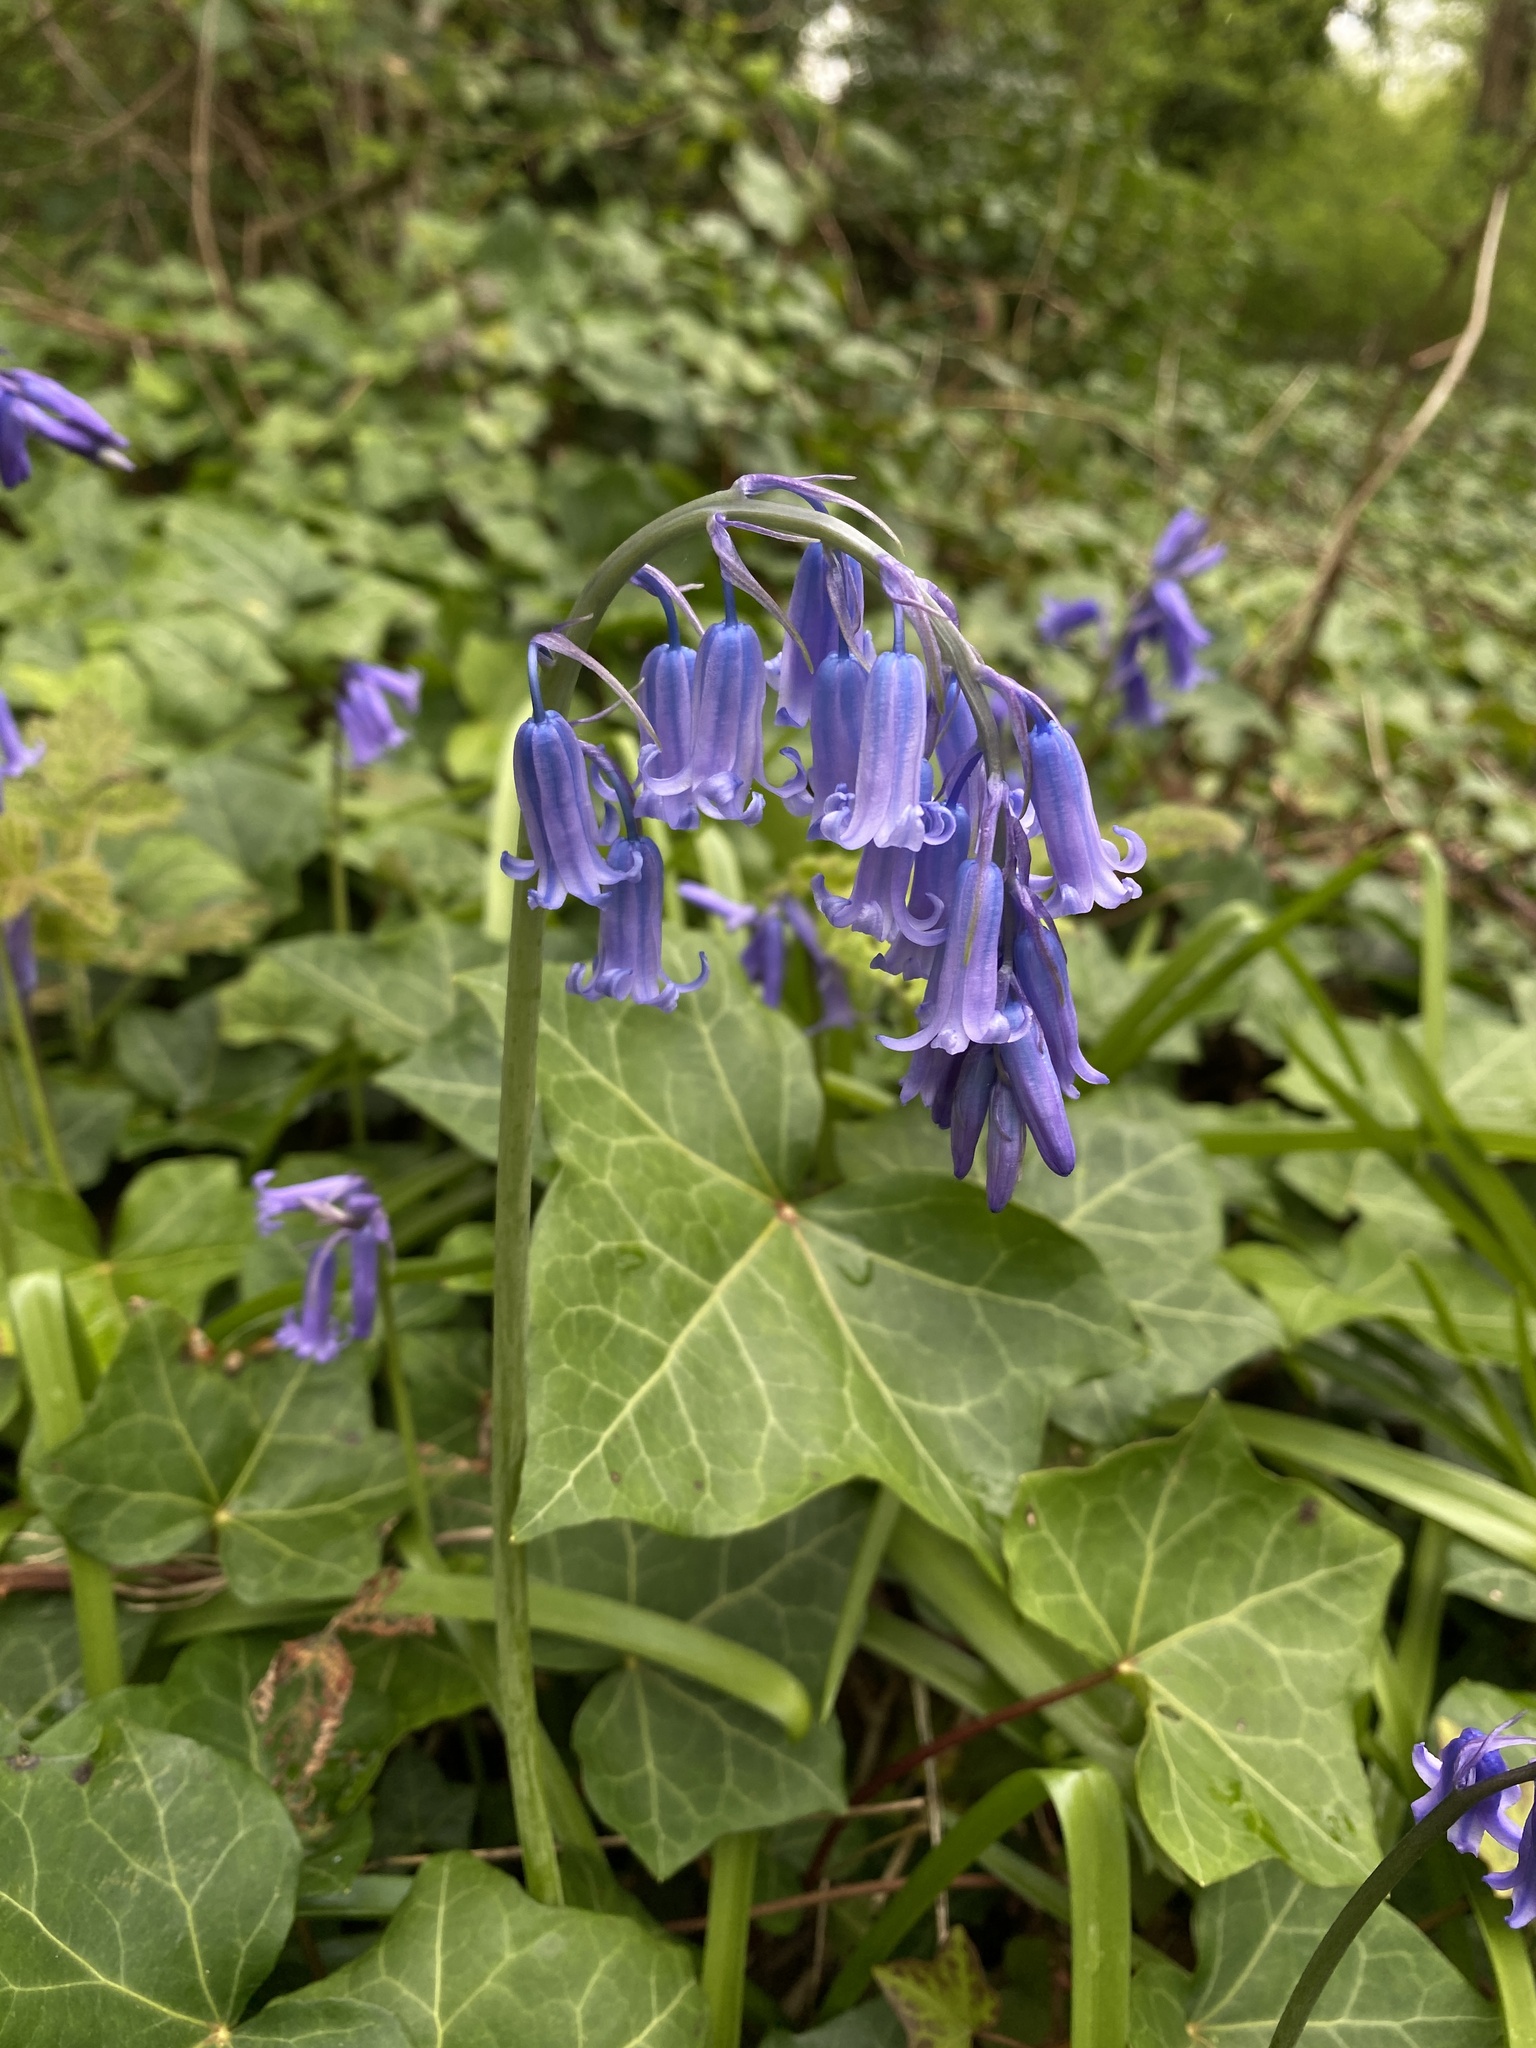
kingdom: Plantae
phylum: Tracheophyta
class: Liliopsida
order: Asparagales
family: Asparagaceae
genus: Hyacinthoides
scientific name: Hyacinthoides non-scripta
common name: Bluebell
